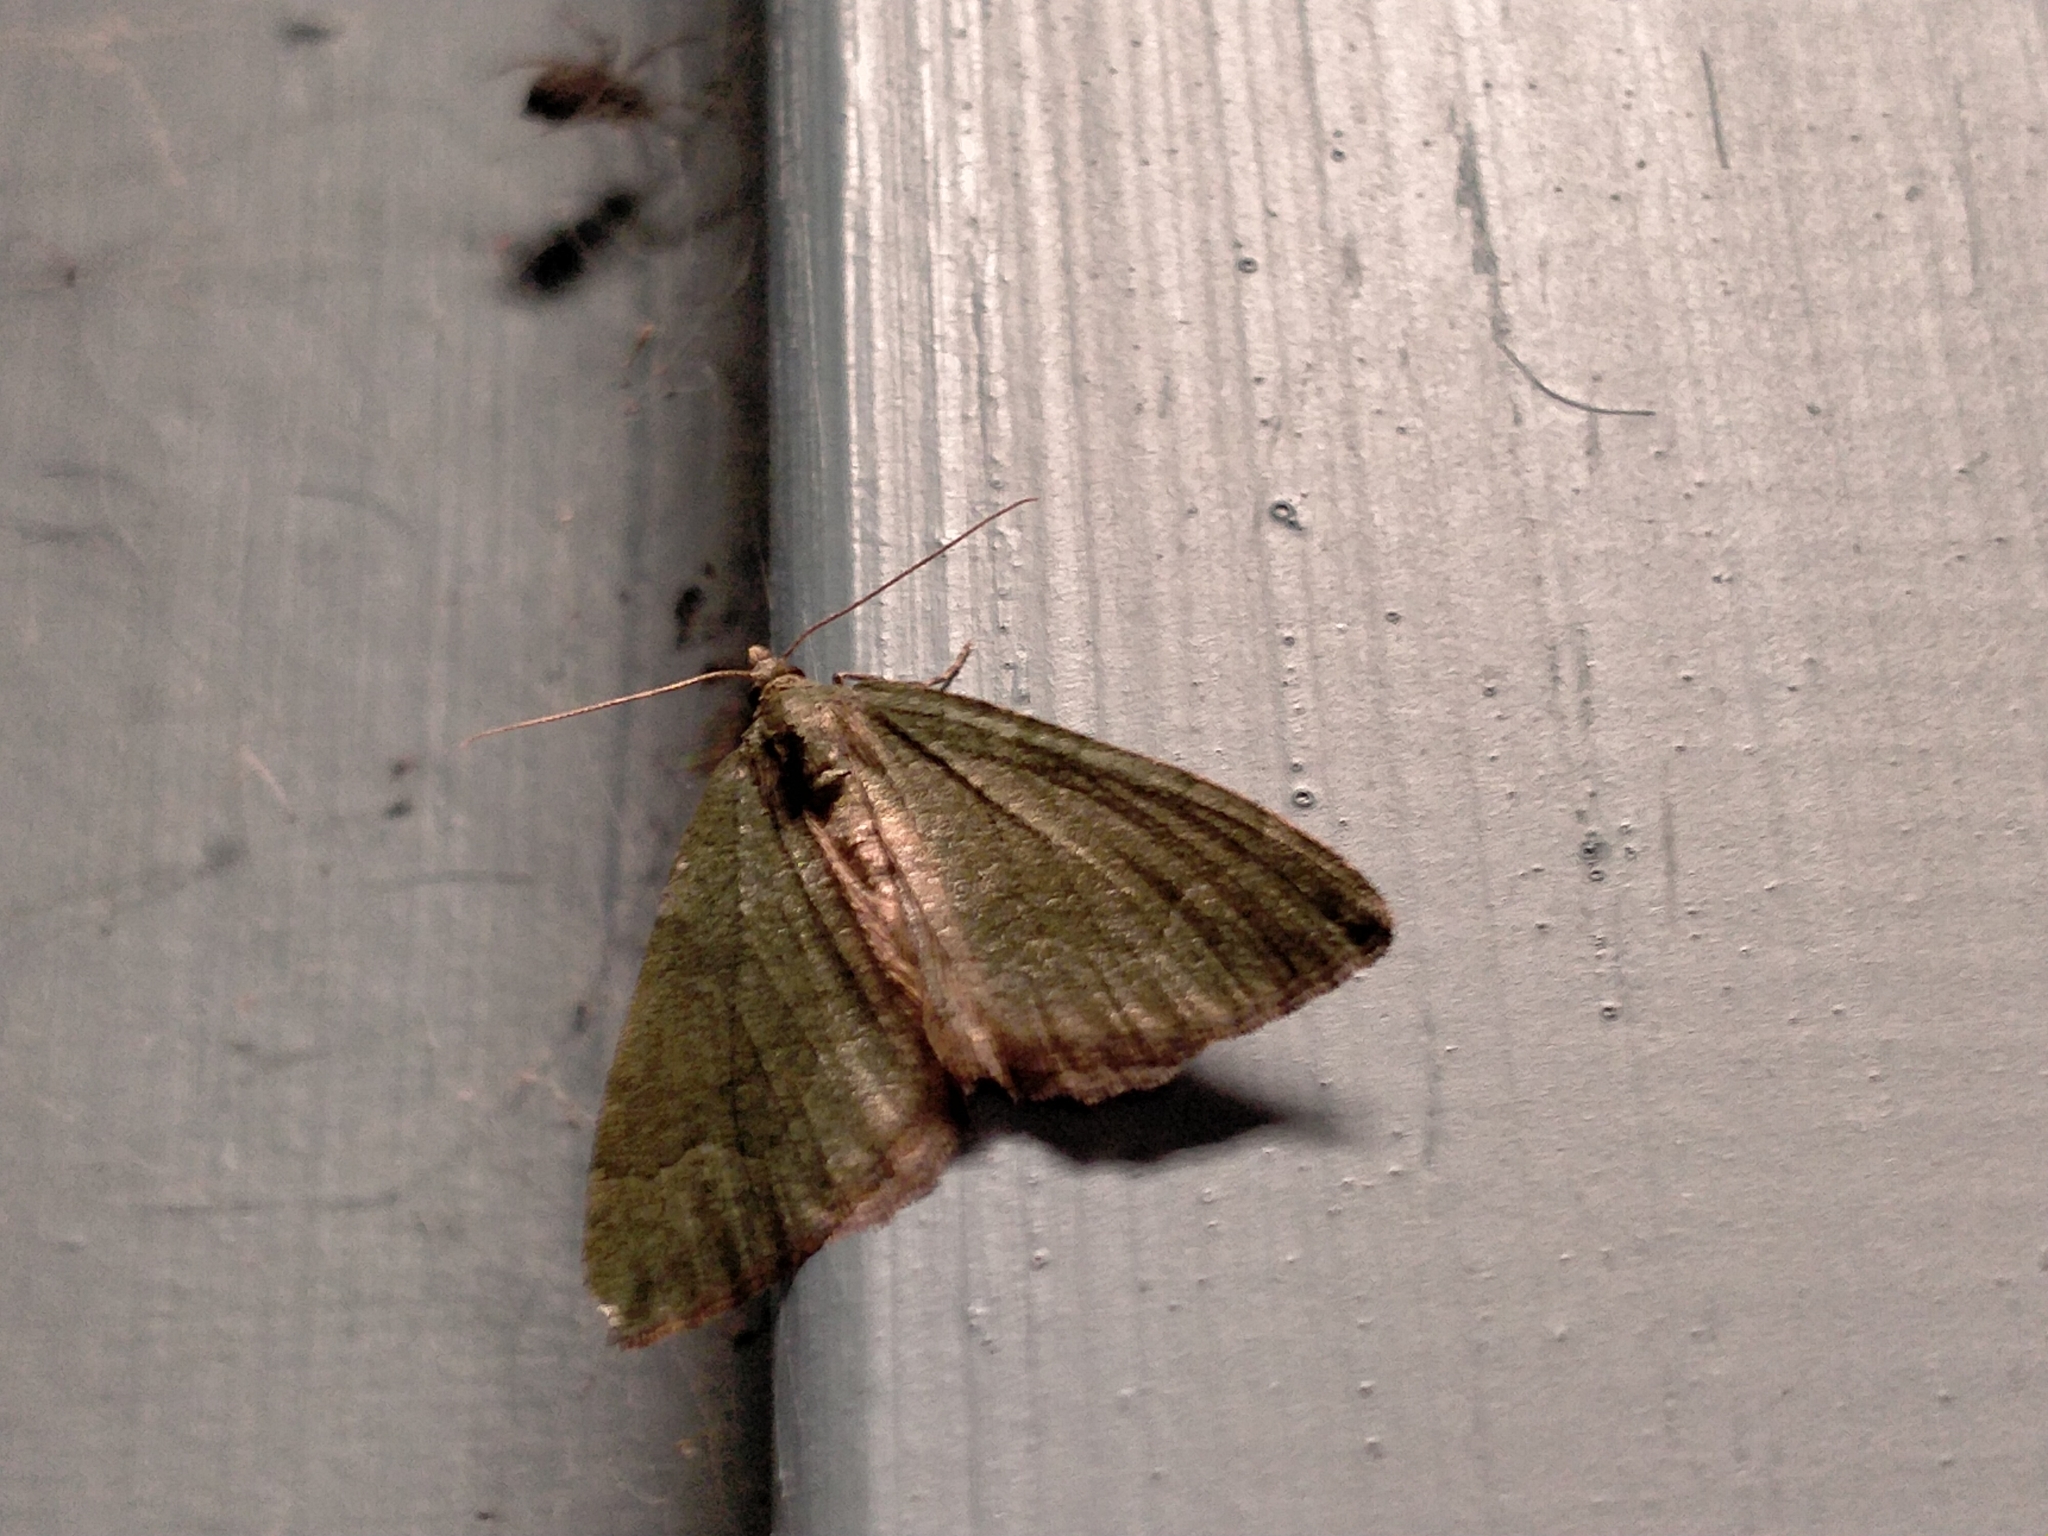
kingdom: Animalia
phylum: Arthropoda
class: Insecta
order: Lepidoptera
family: Geometridae
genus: Epyaxa
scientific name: Epyaxa rosearia
